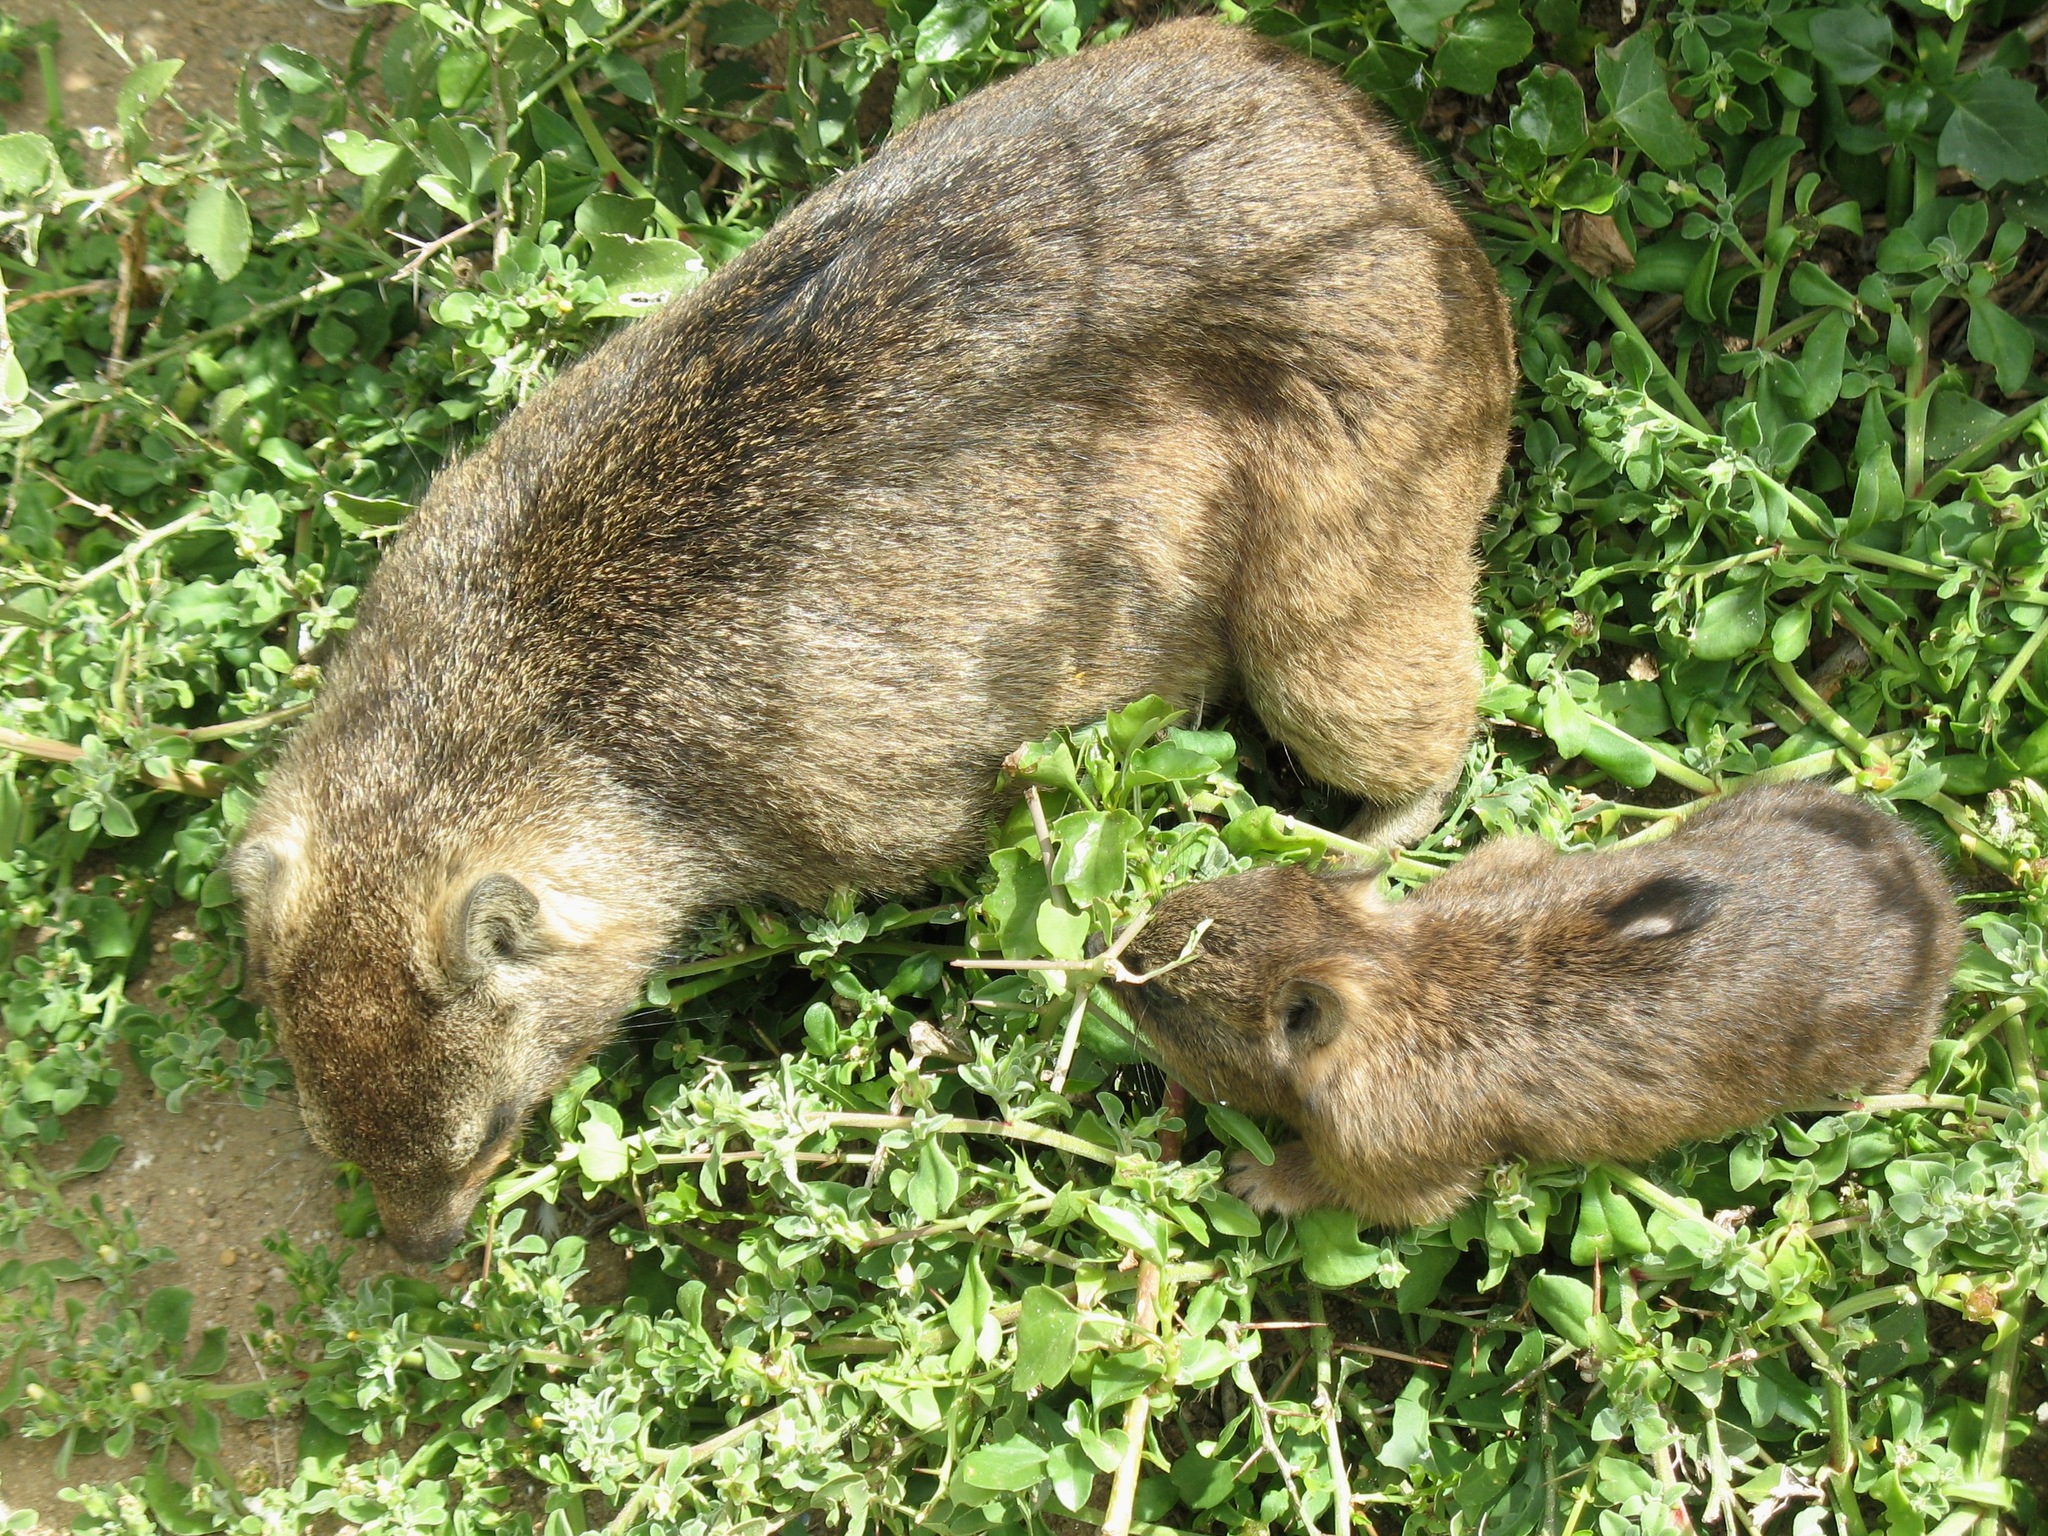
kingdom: Animalia
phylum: Chordata
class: Mammalia
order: Hyracoidea
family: Procaviidae
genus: Procavia
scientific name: Procavia capensis
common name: Rock hyrax
